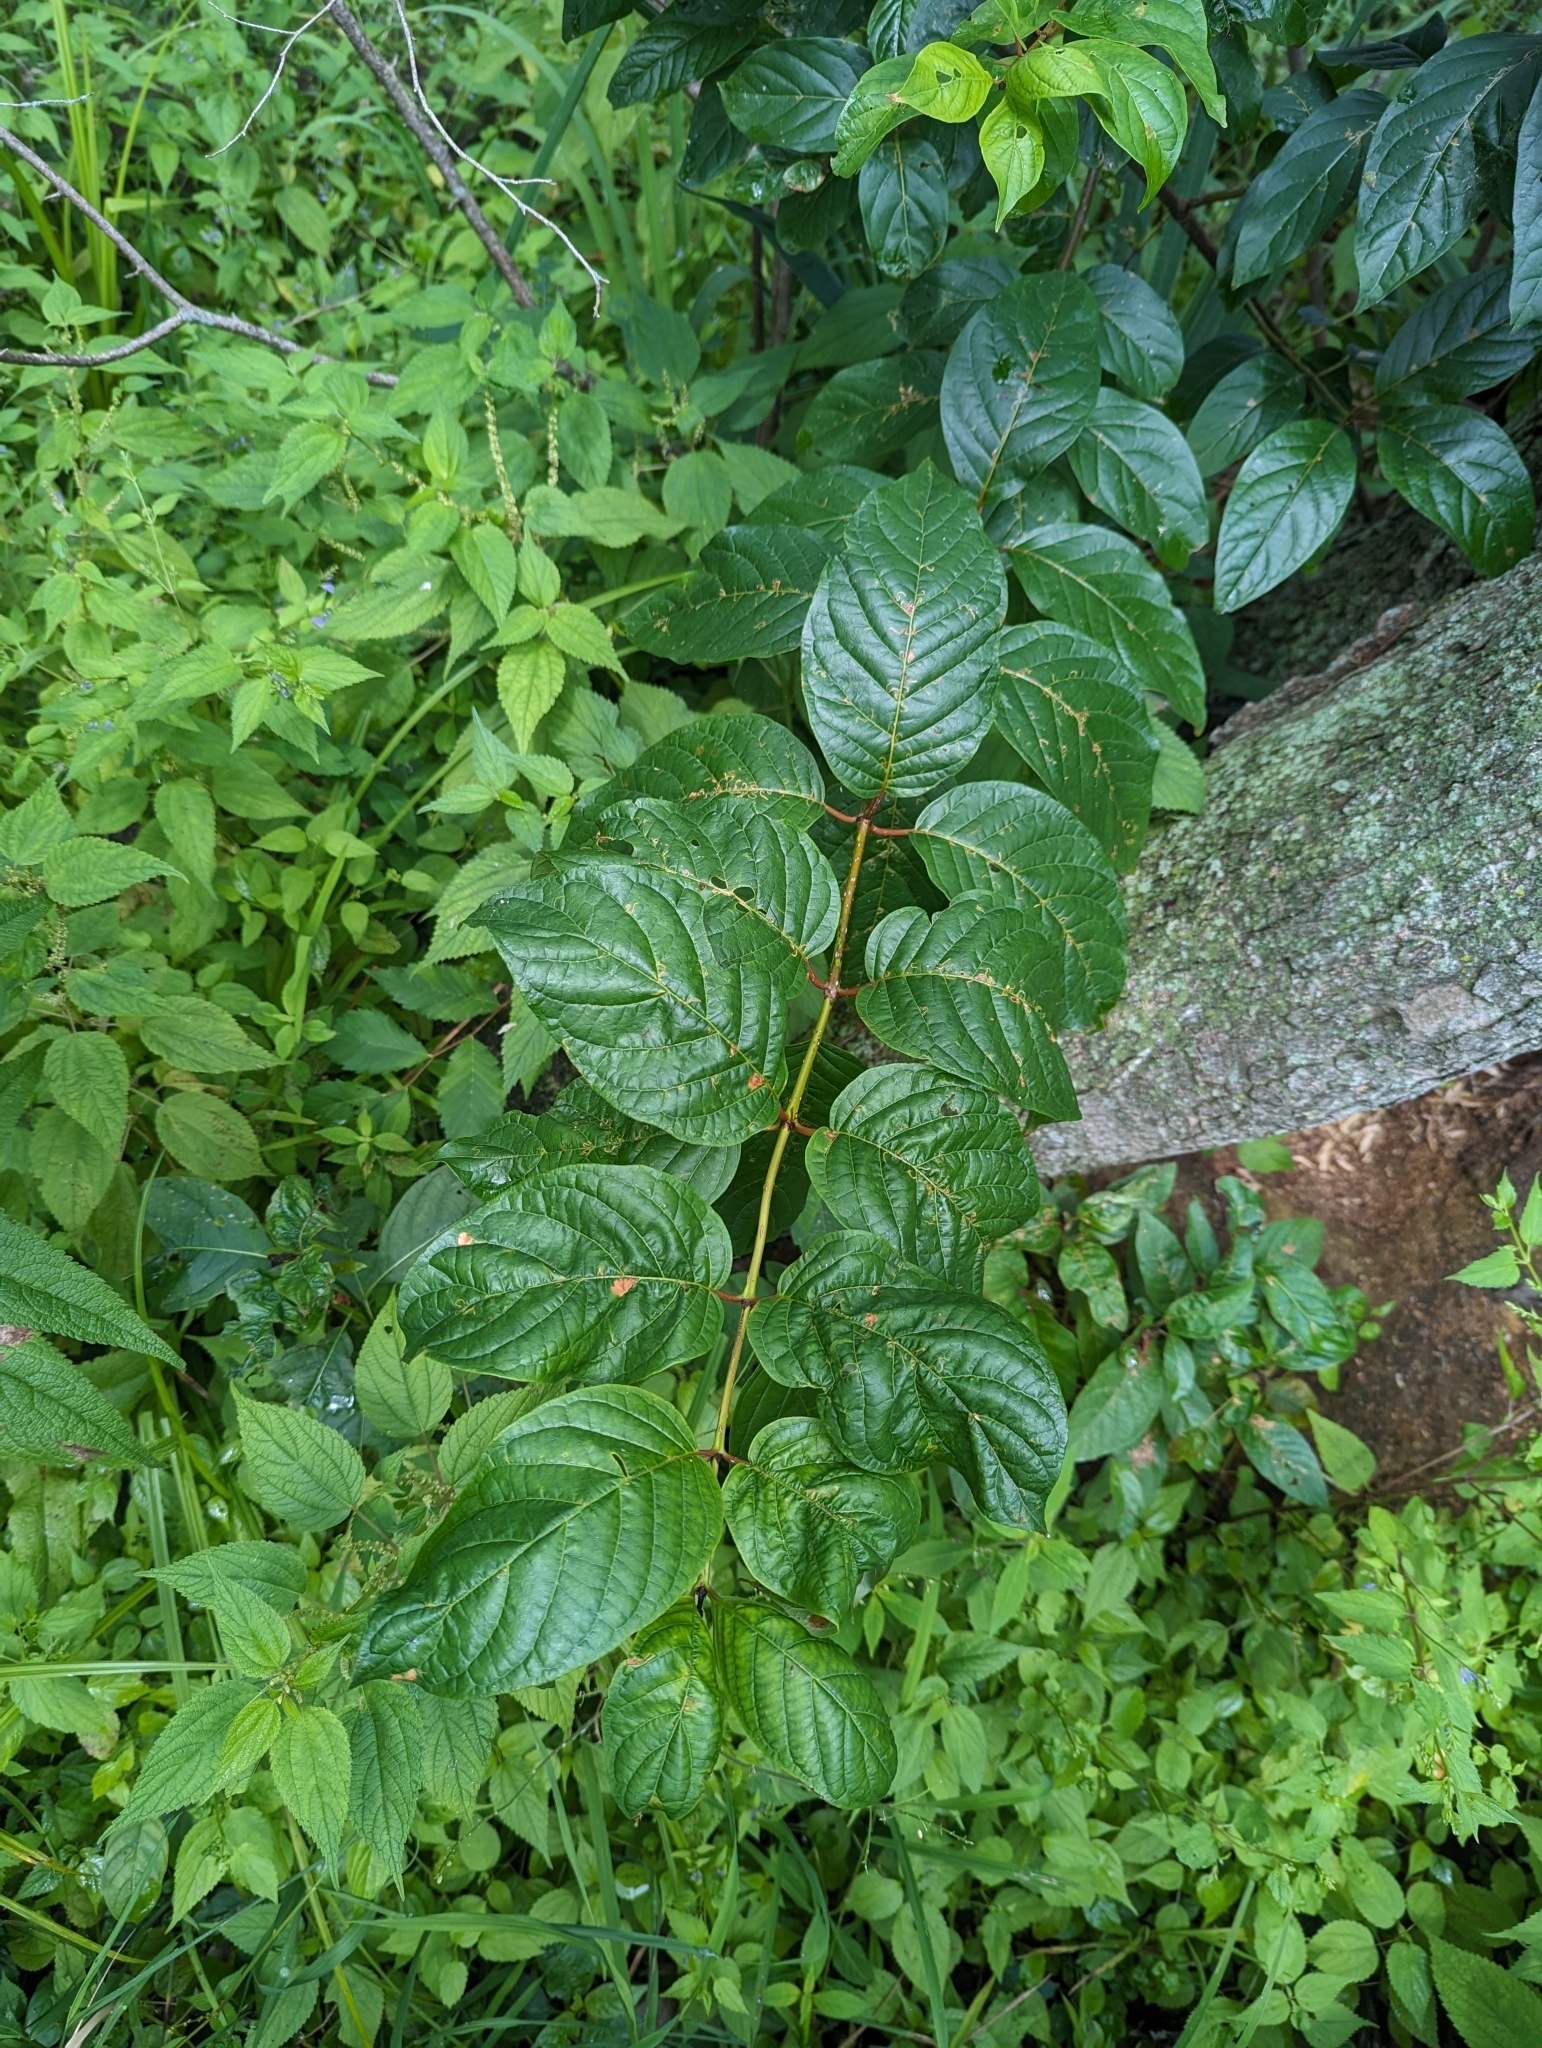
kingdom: Plantae
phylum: Tracheophyta
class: Magnoliopsida
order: Gentianales
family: Rubiaceae
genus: Cephalanthus
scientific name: Cephalanthus occidentalis
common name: Button-willow
